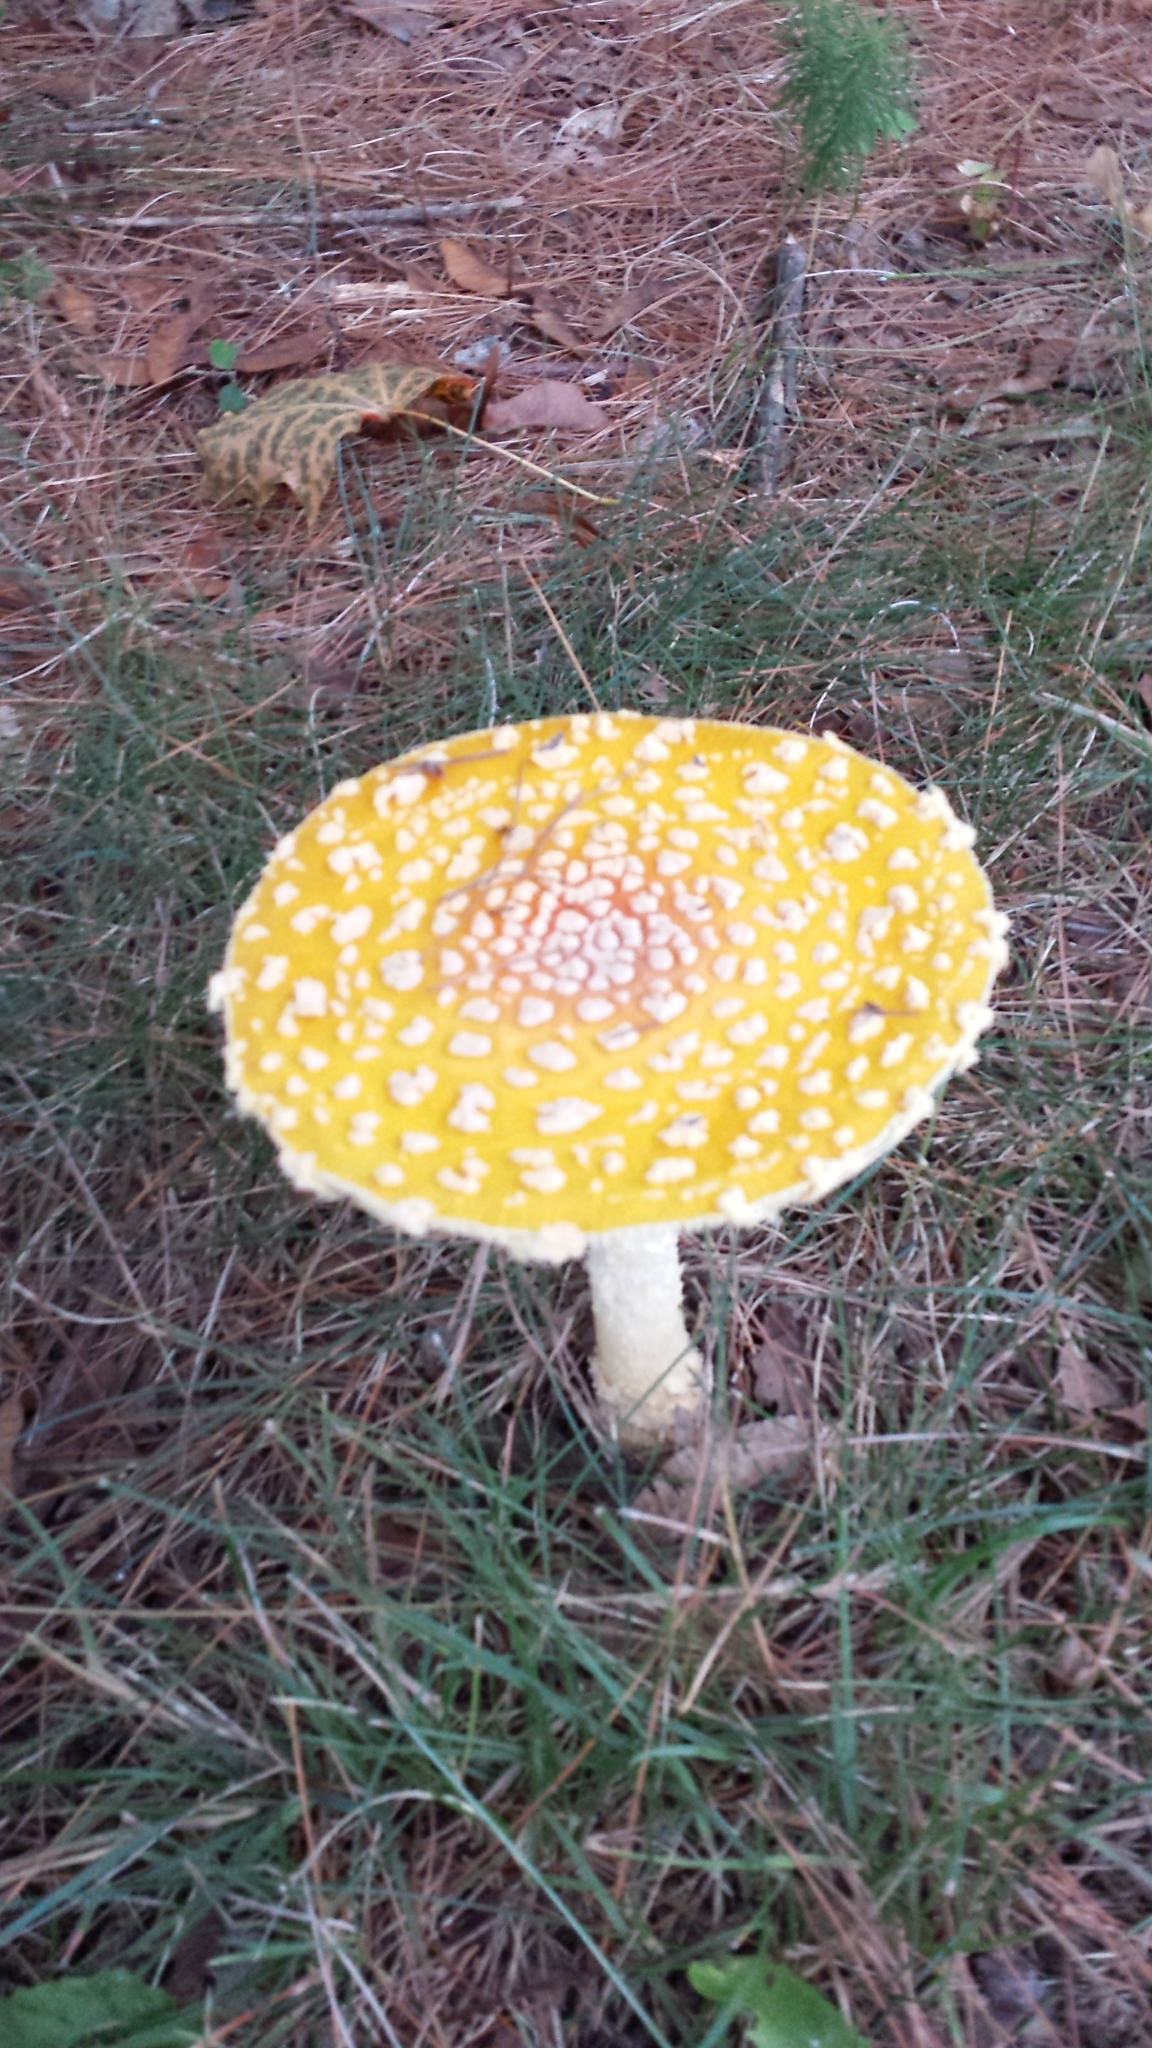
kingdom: Fungi
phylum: Basidiomycota
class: Agaricomycetes
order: Agaricales
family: Amanitaceae
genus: Amanita
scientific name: Amanita muscaria
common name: Fly agaric
